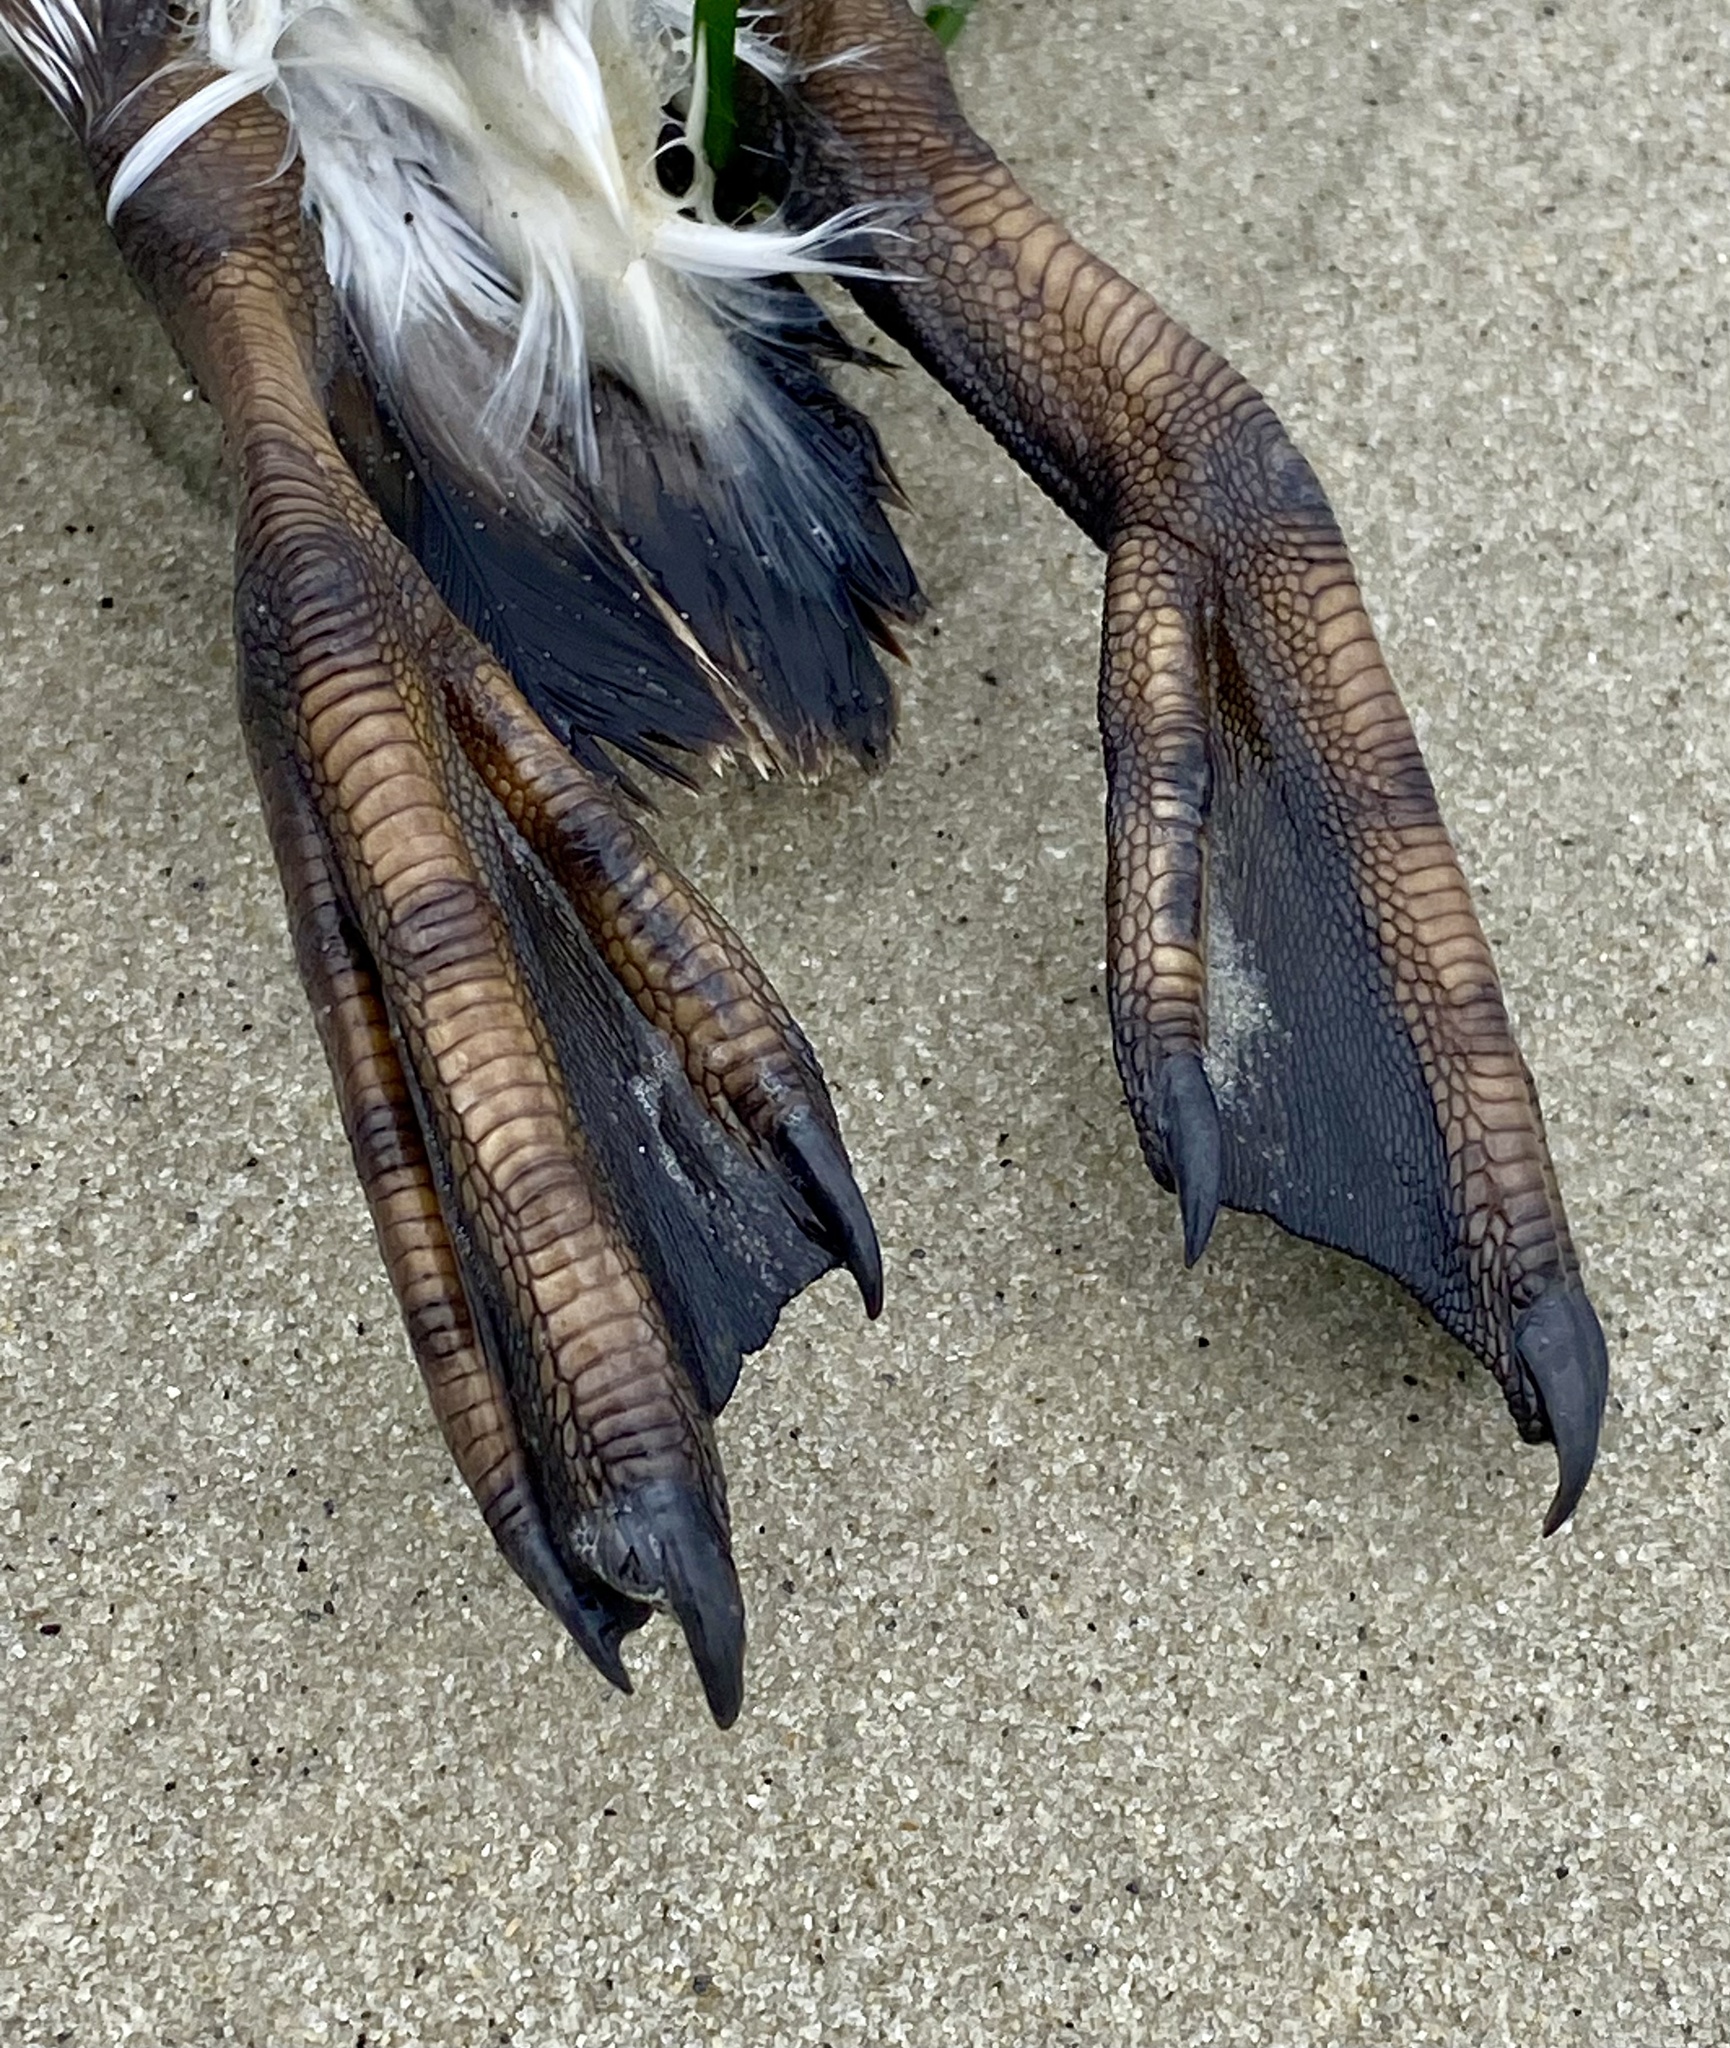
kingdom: Animalia
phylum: Chordata
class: Aves
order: Charadriiformes
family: Alcidae
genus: Uria
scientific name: Uria aalge
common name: Common murre
